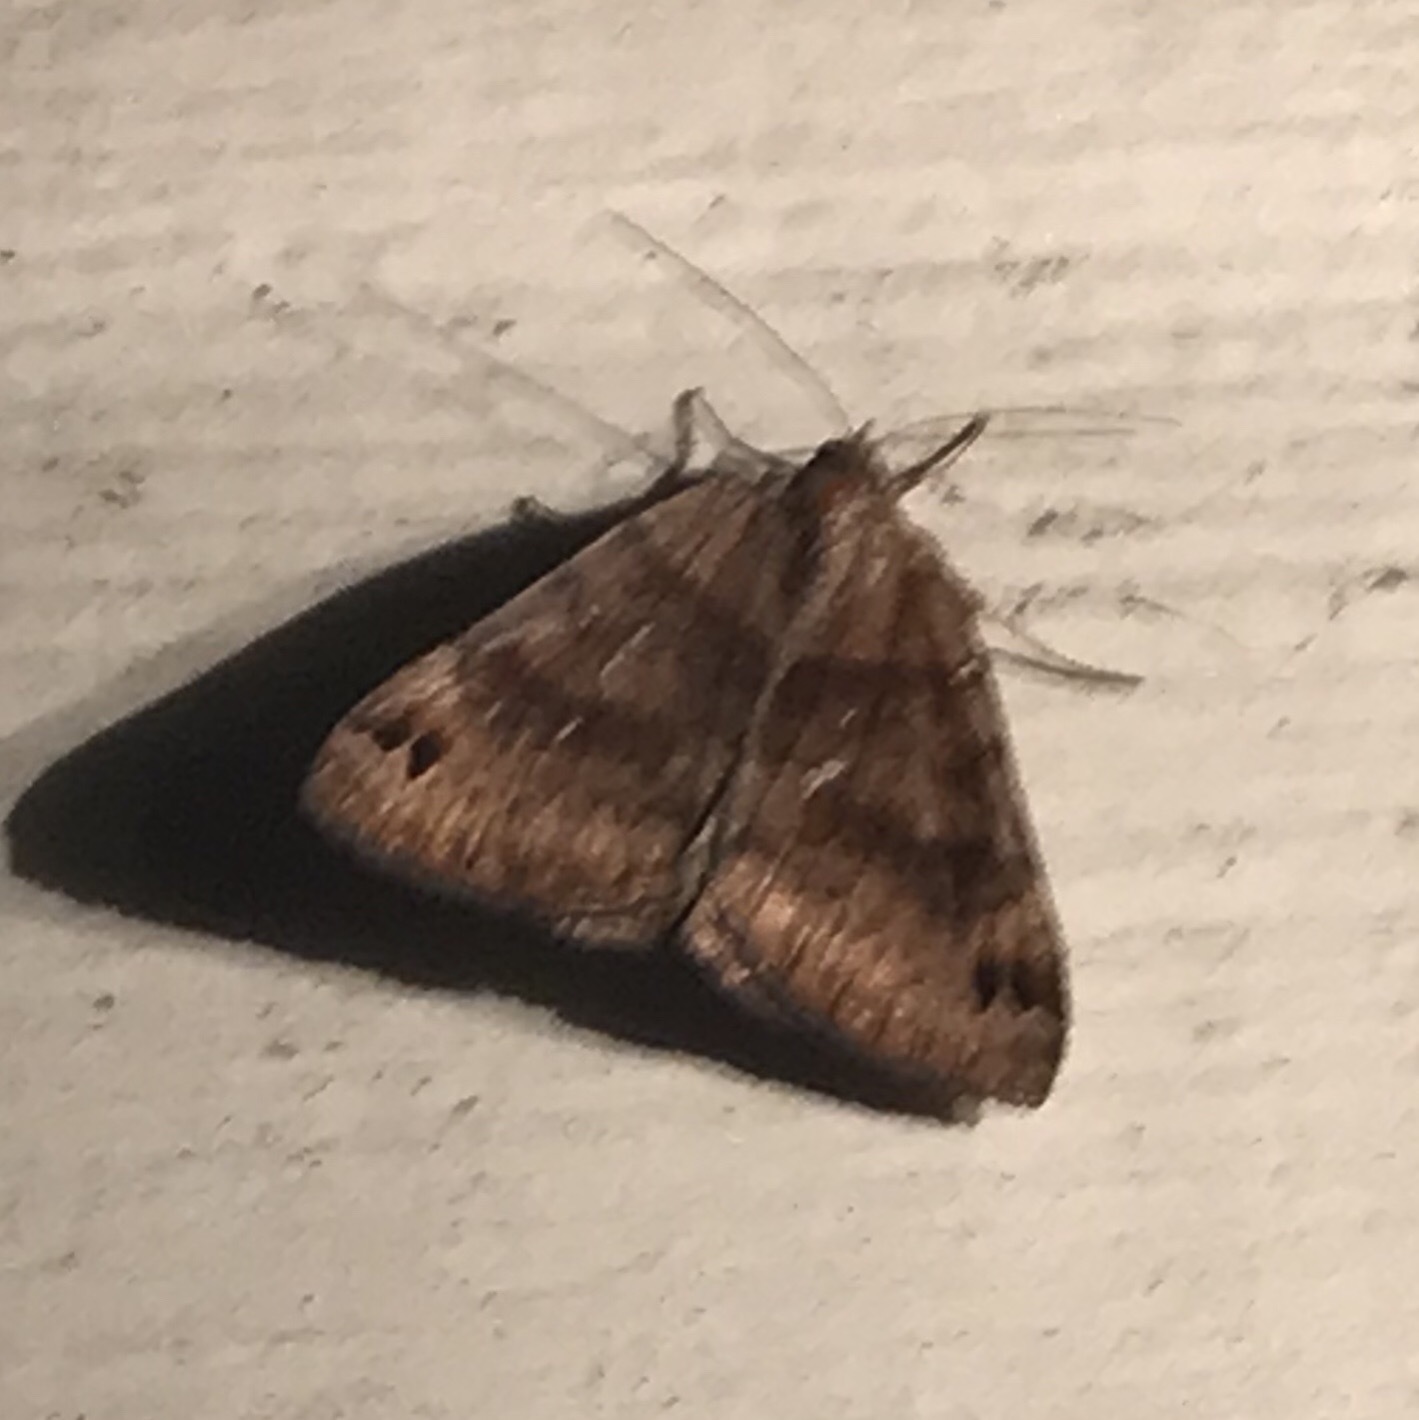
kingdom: Animalia
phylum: Arthropoda
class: Insecta
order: Lepidoptera
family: Erebidae
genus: Caenurgina
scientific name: Caenurgina crassiuscula
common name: Double-barred
